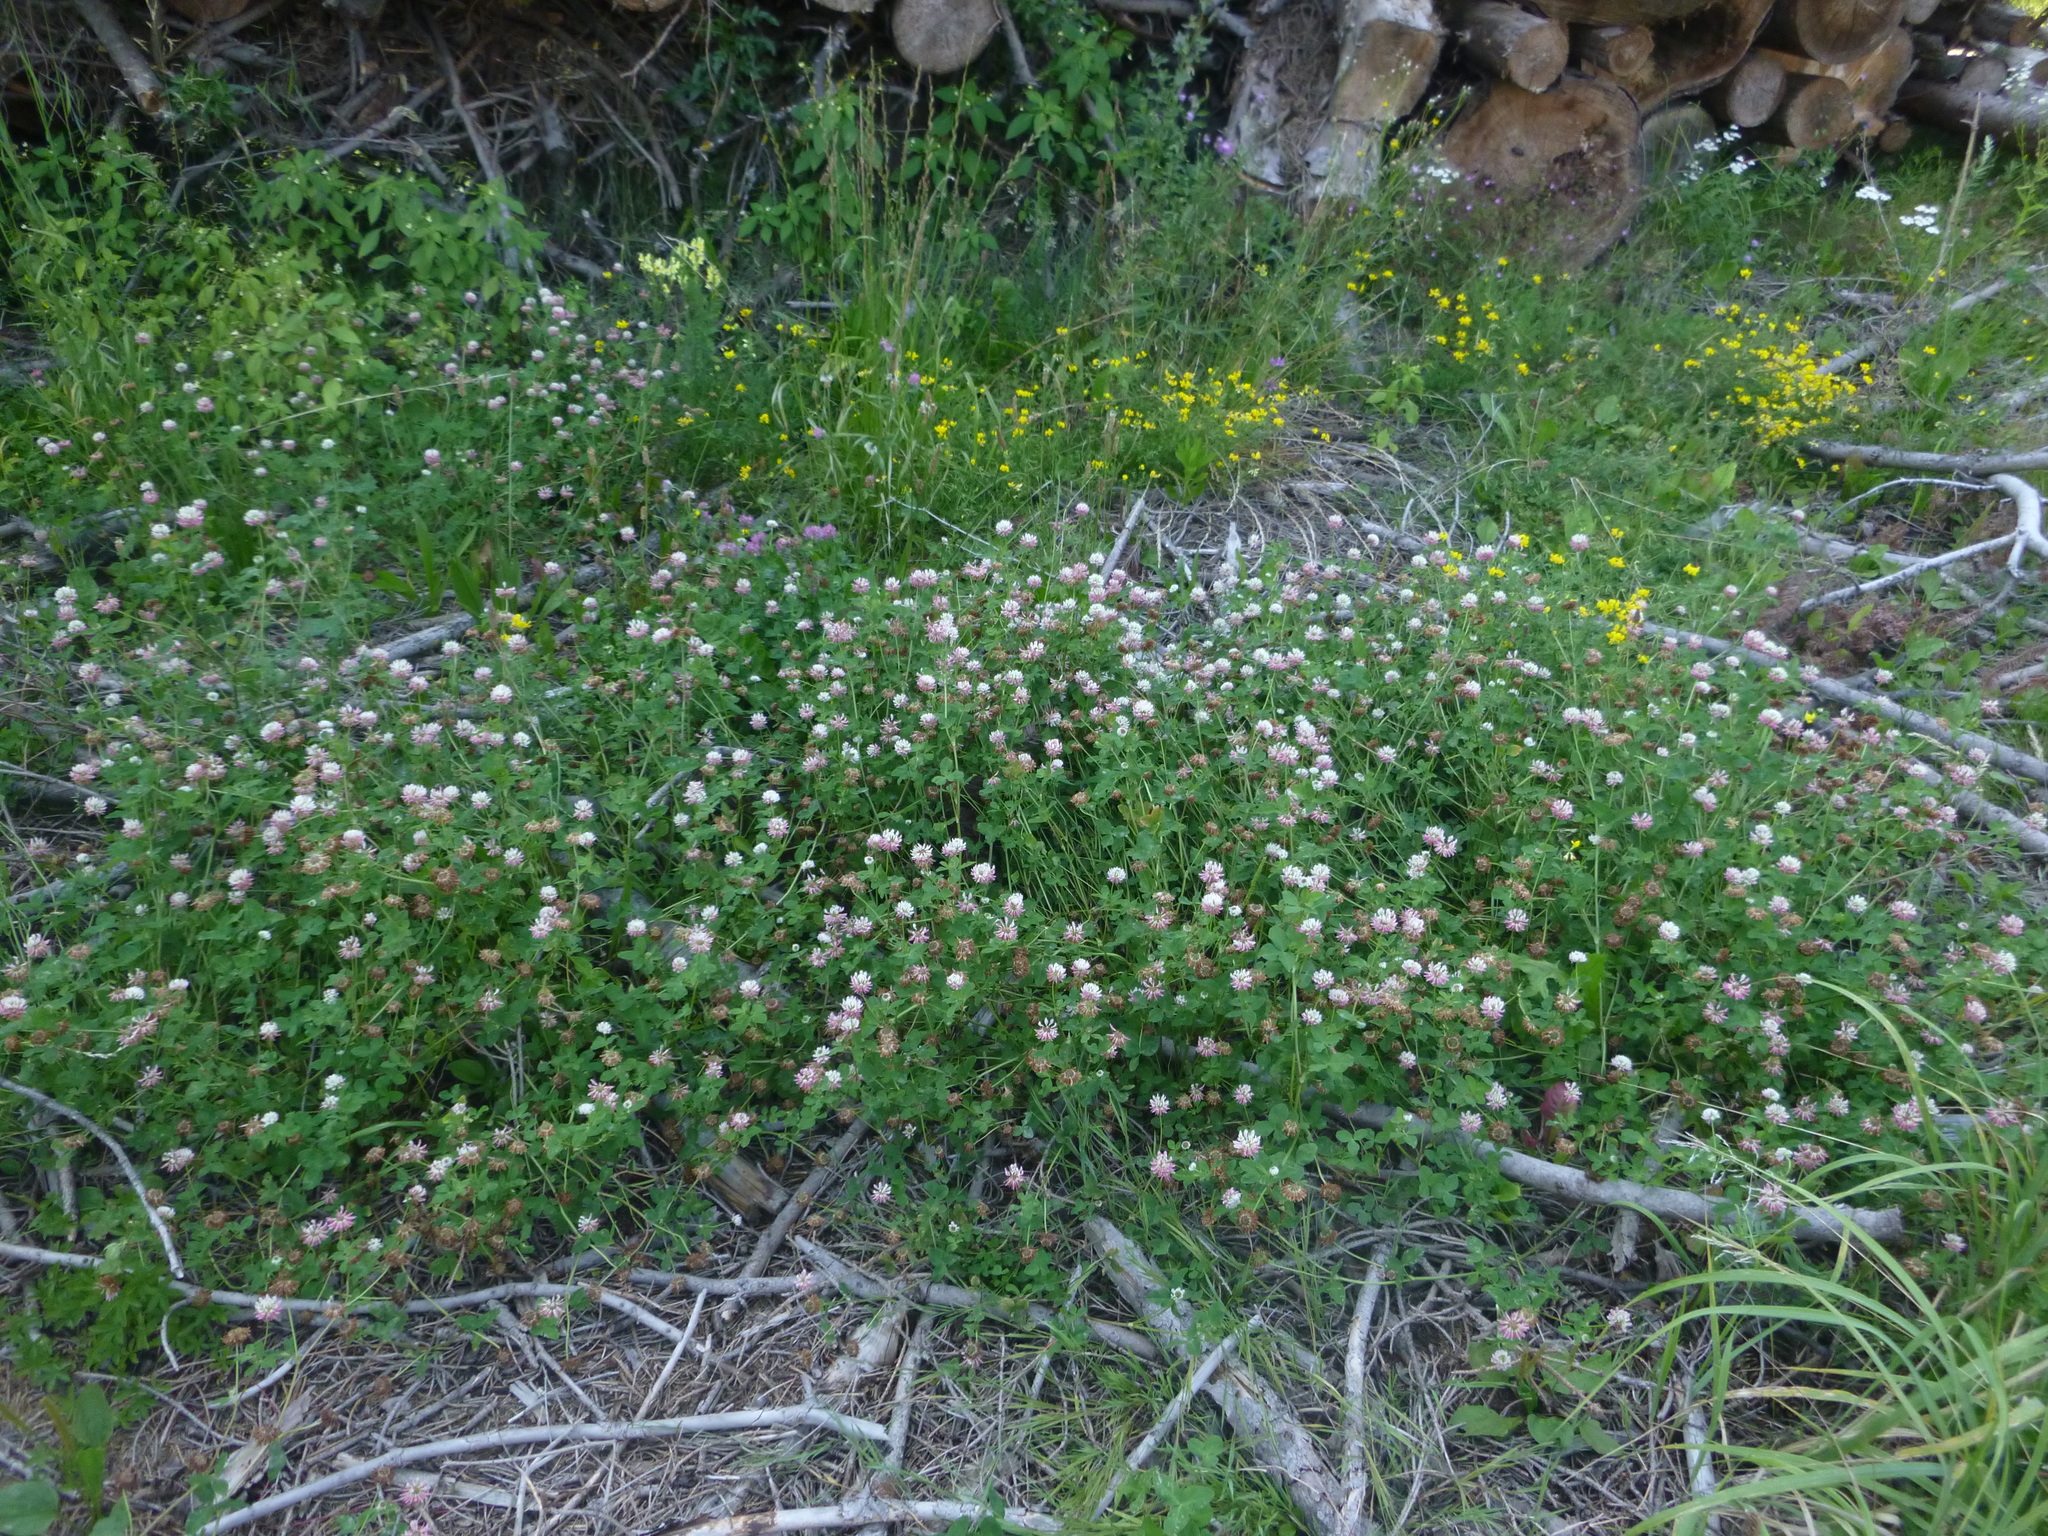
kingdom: Plantae
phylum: Tracheophyta
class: Magnoliopsida
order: Fabales
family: Fabaceae
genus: Trifolium
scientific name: Trifolium hybridum
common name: Alsike clover
